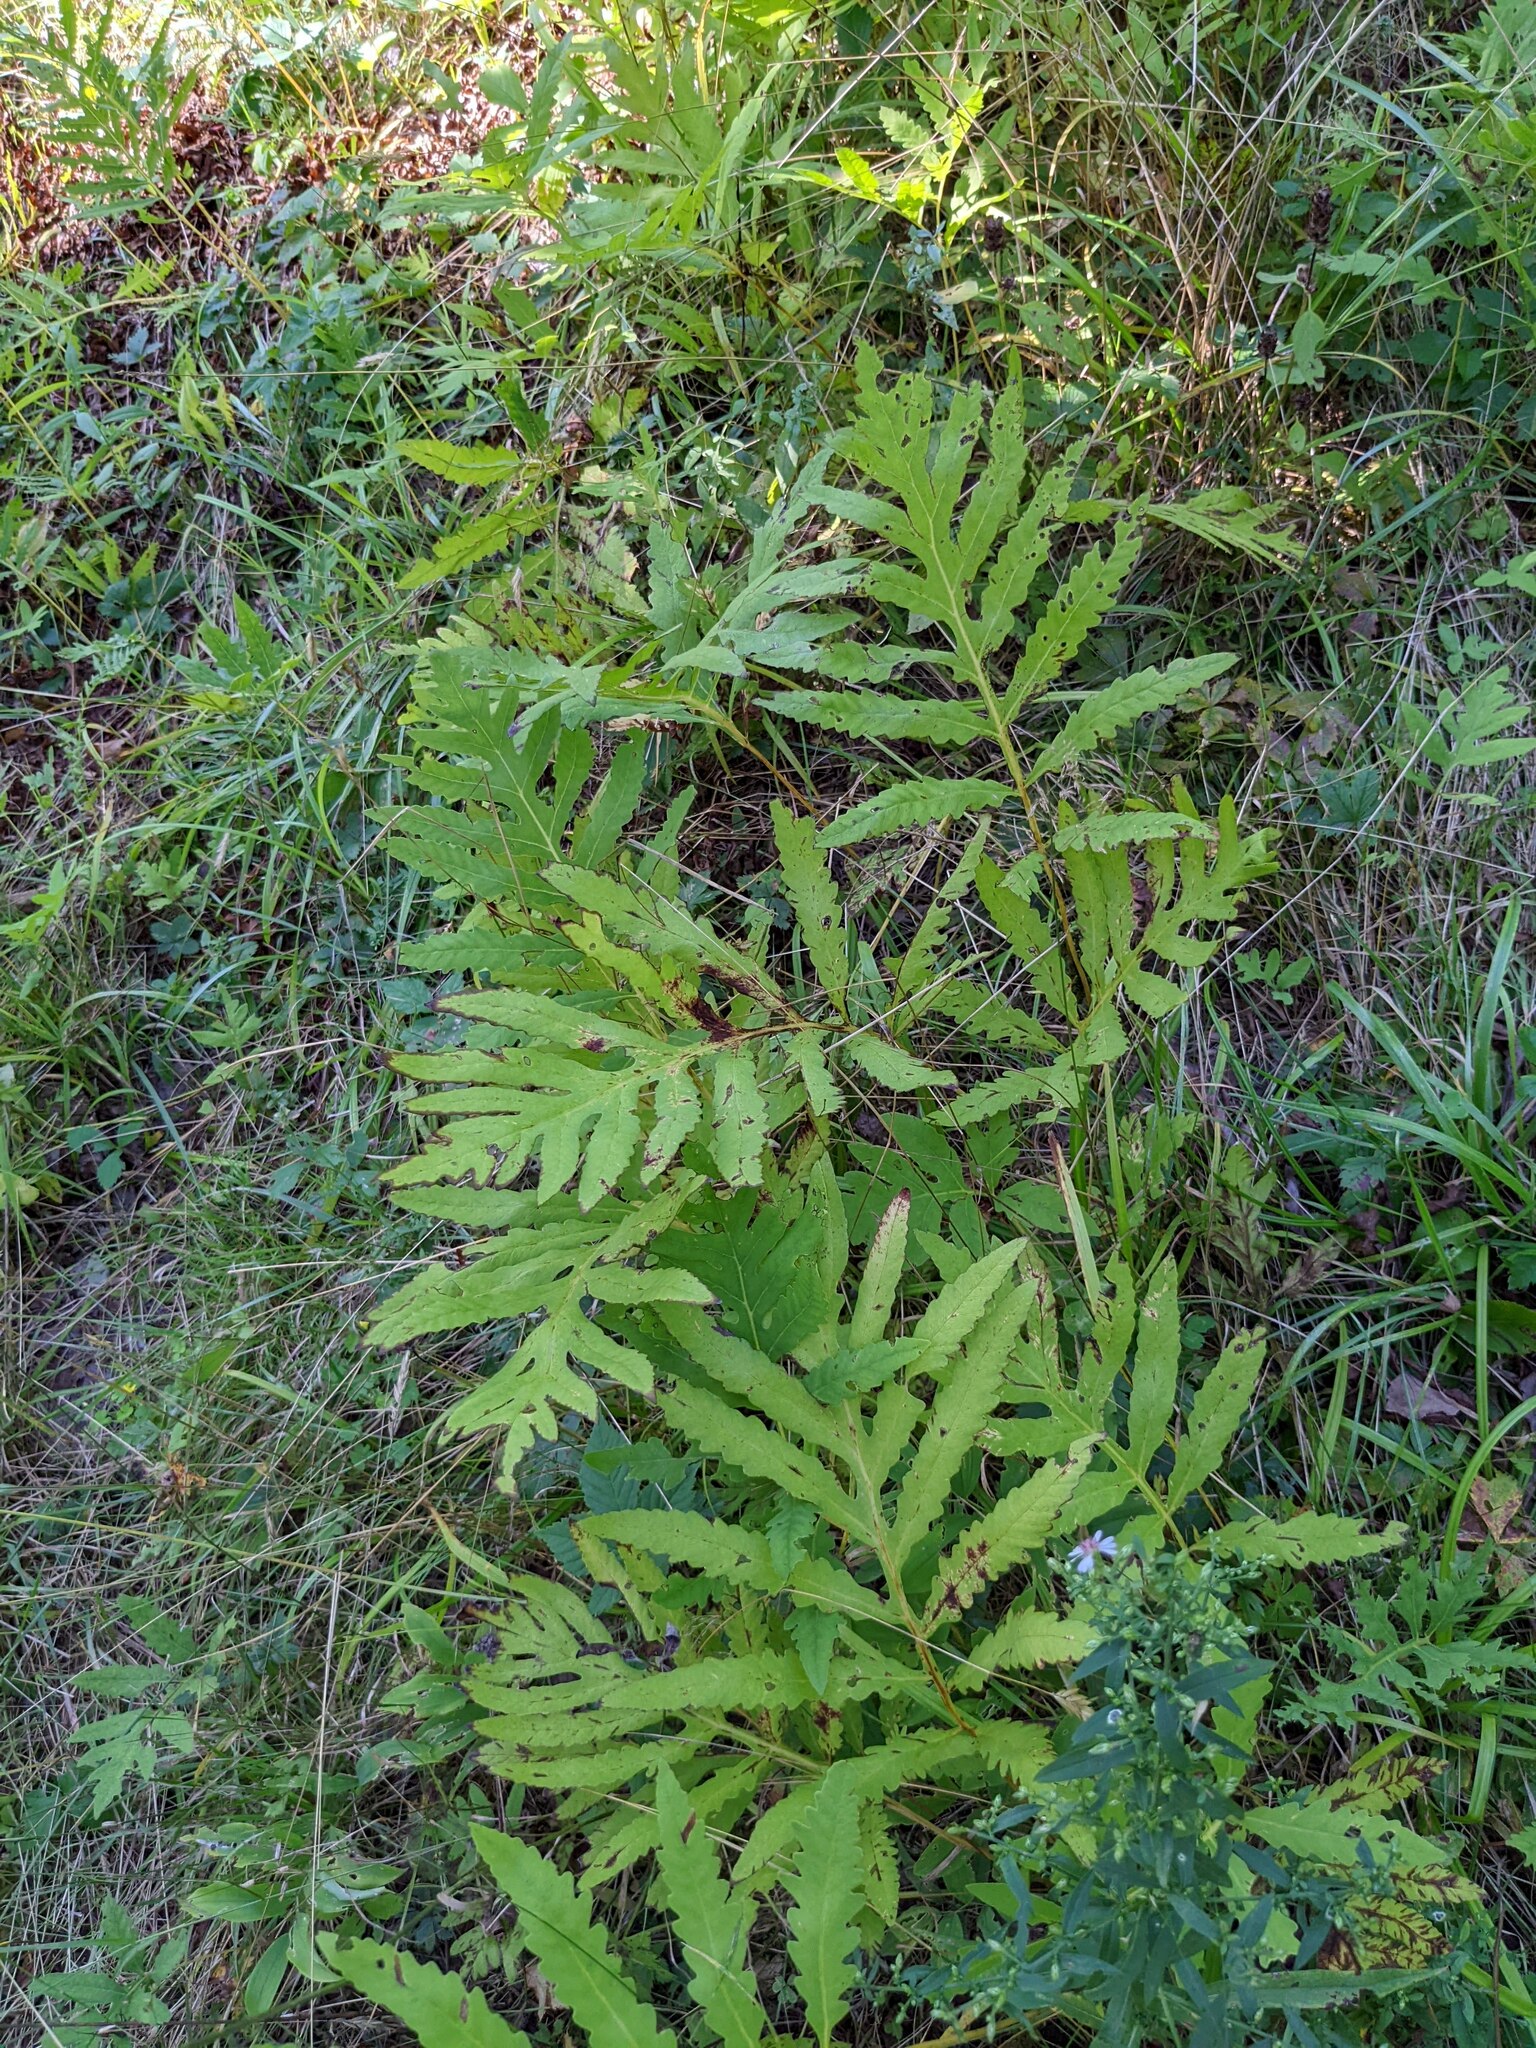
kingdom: Plantae
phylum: Tracheophyta
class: Polypodiopsida
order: Polypodiales
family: Onocleaceae
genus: Onoclea
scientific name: Onoclea sensibilis
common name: Sensitive fern
